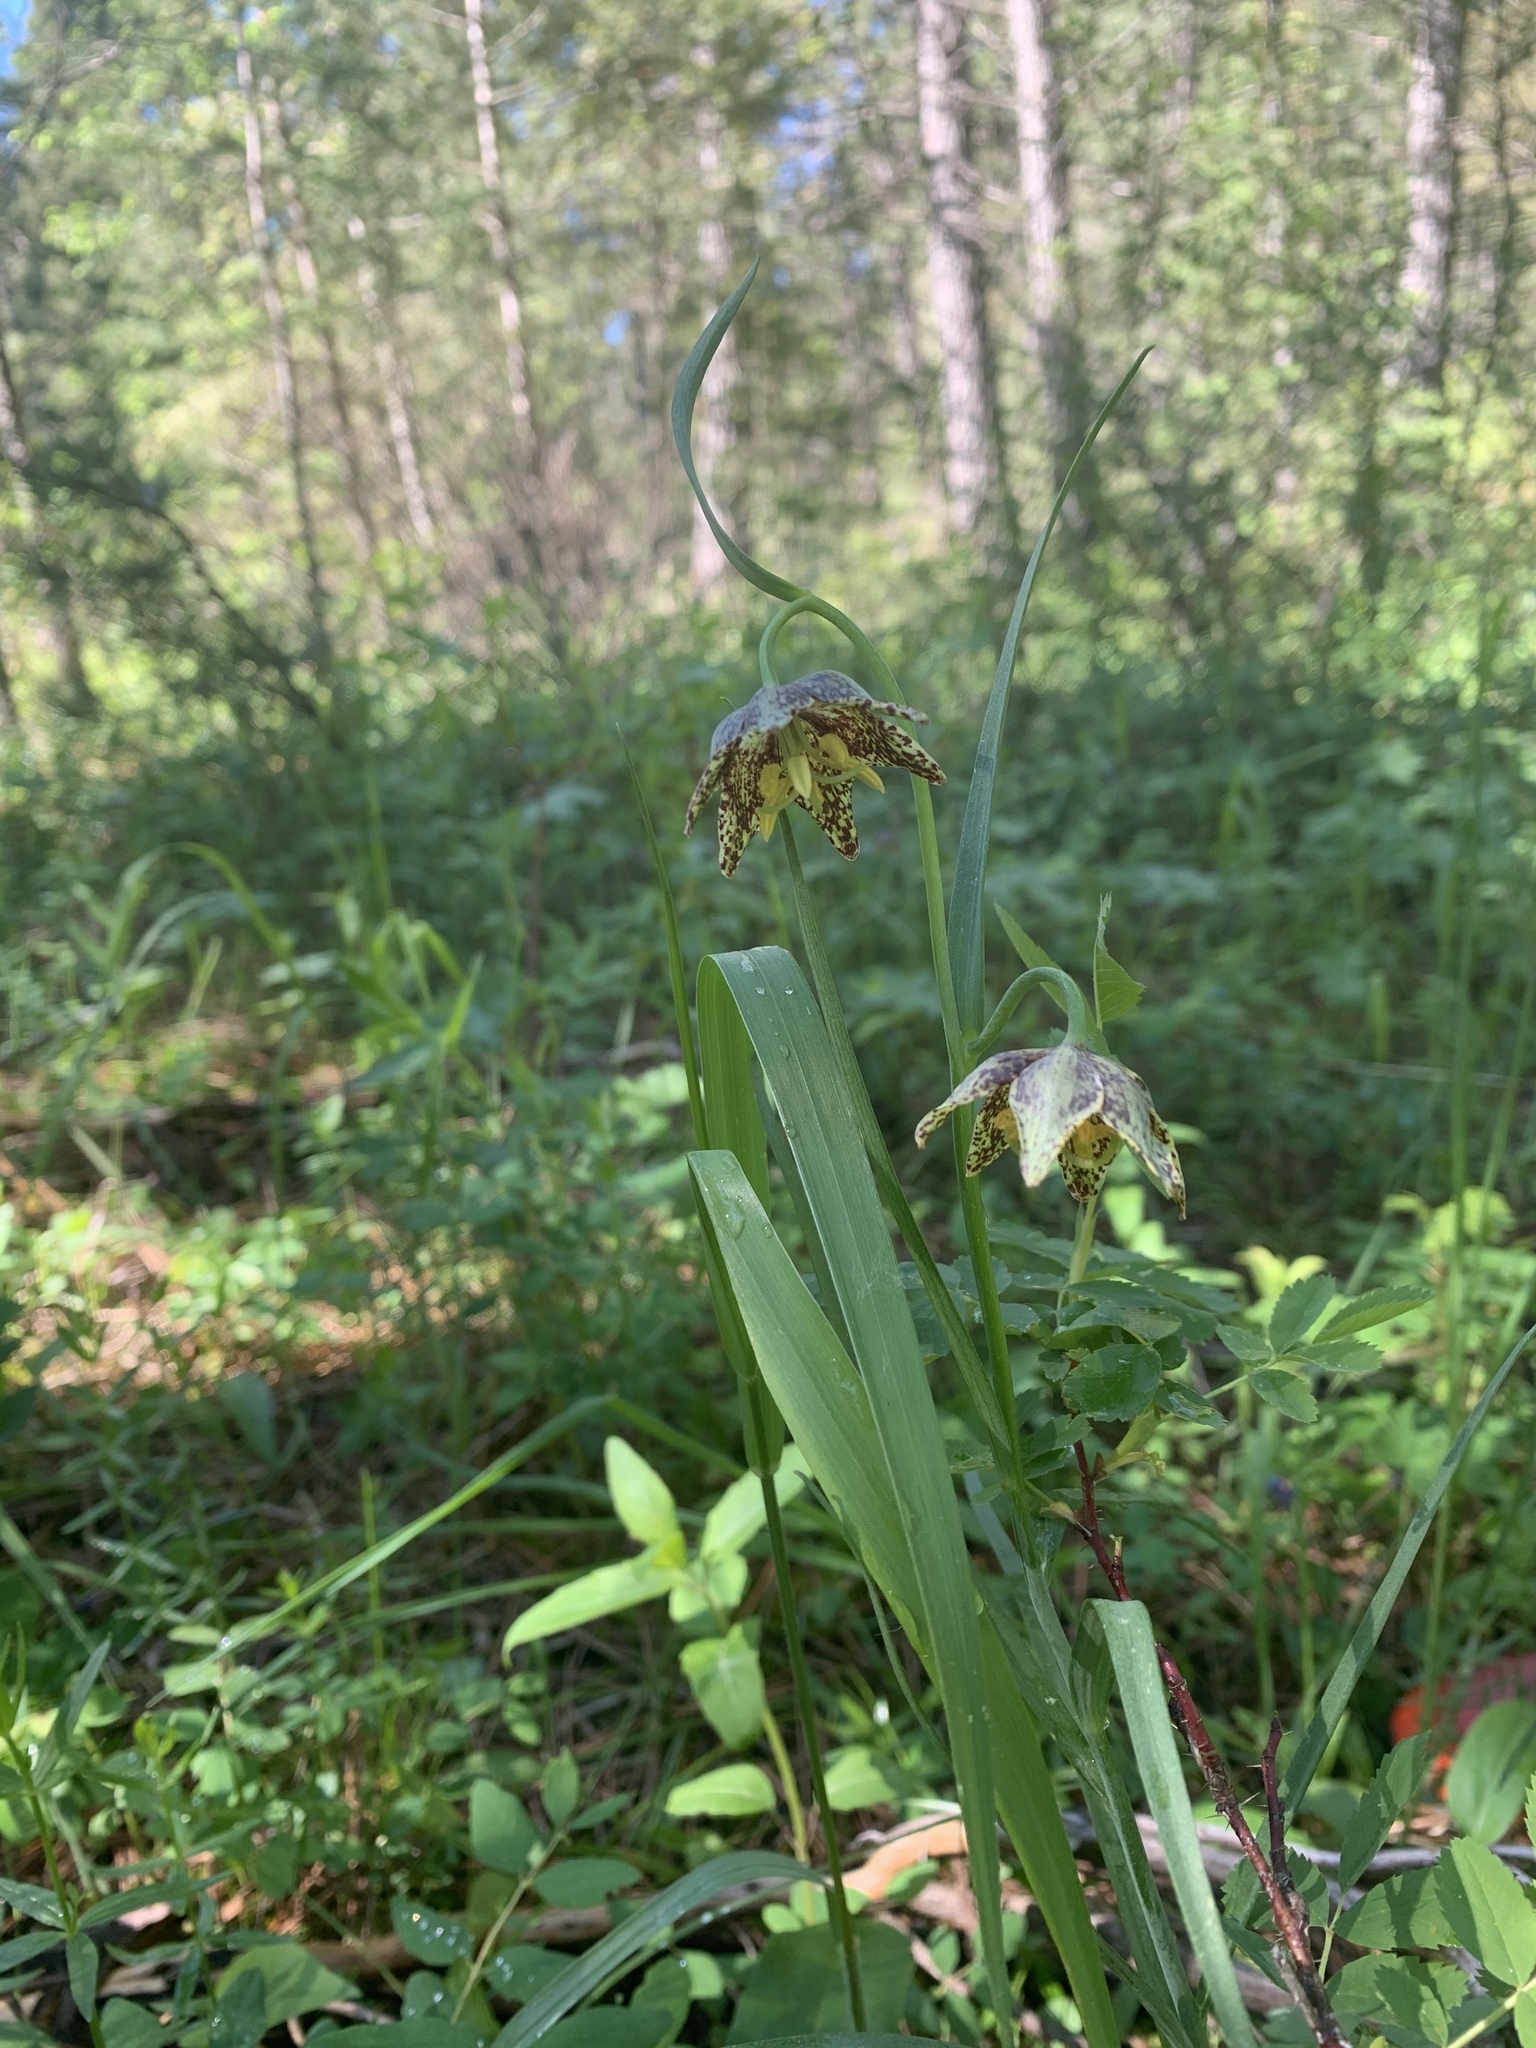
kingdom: Plantae
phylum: Tracheophyta
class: Liliopsida
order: Liliales
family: Liliaceae
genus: Fritillaria
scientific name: Fritillaria atropurpurea
